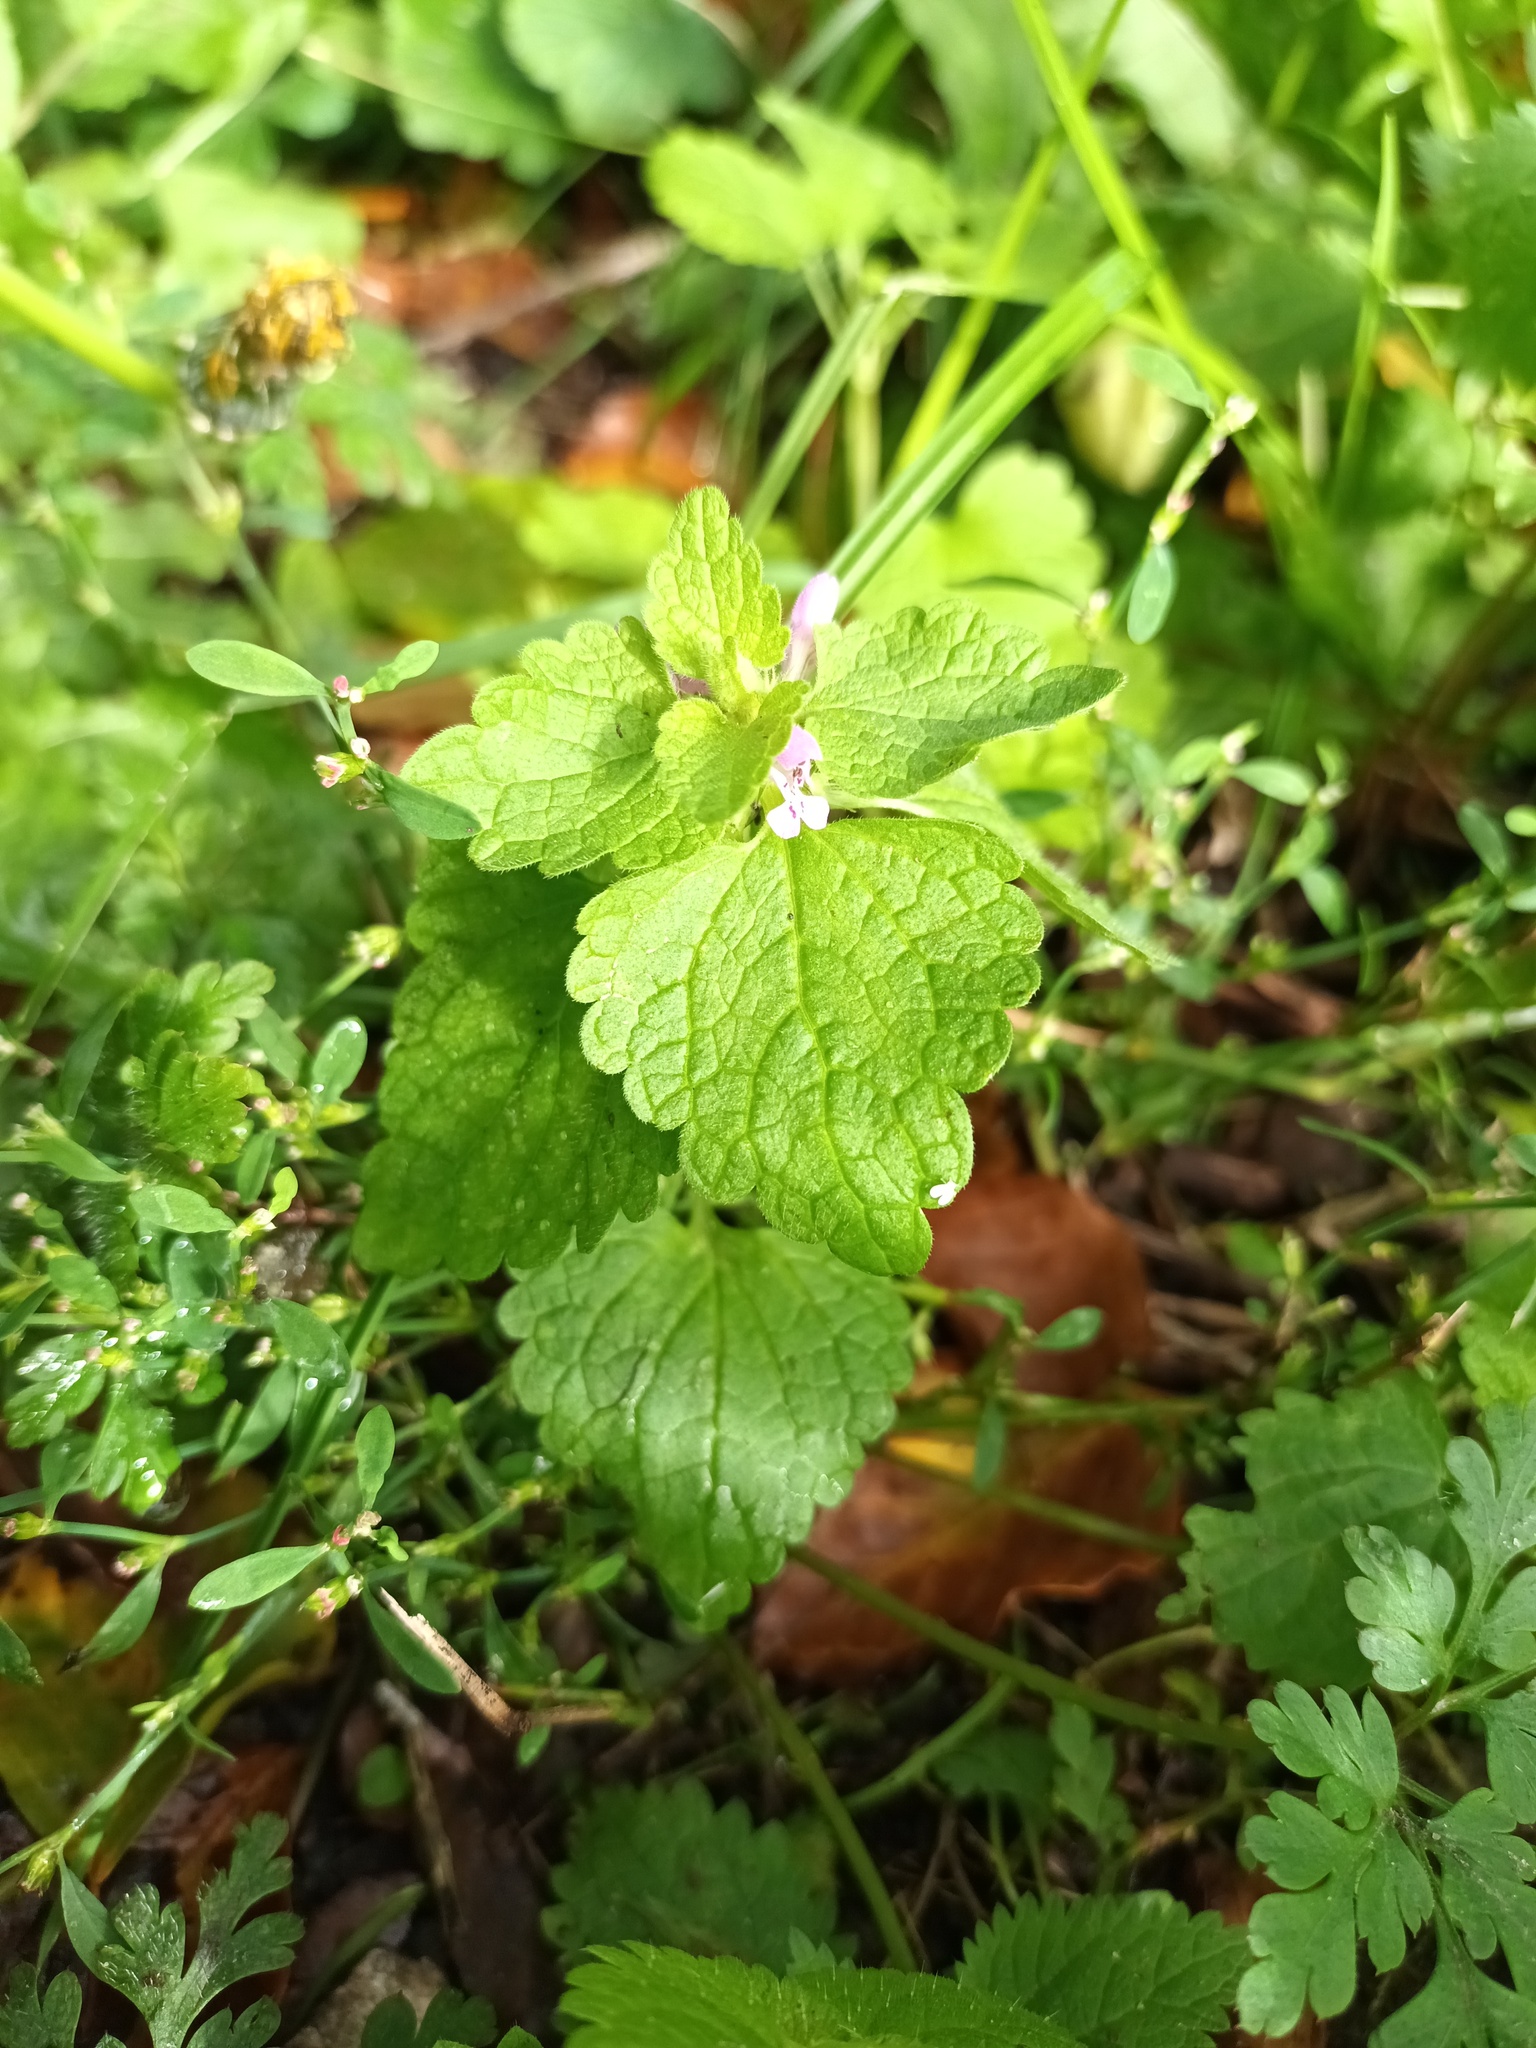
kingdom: Plantae
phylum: Tracheophyta
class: Magnoliopsida
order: Lamiales
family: Lamiaceae
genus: Lamium
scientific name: Lamium purpureum
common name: Red dead-nettle
